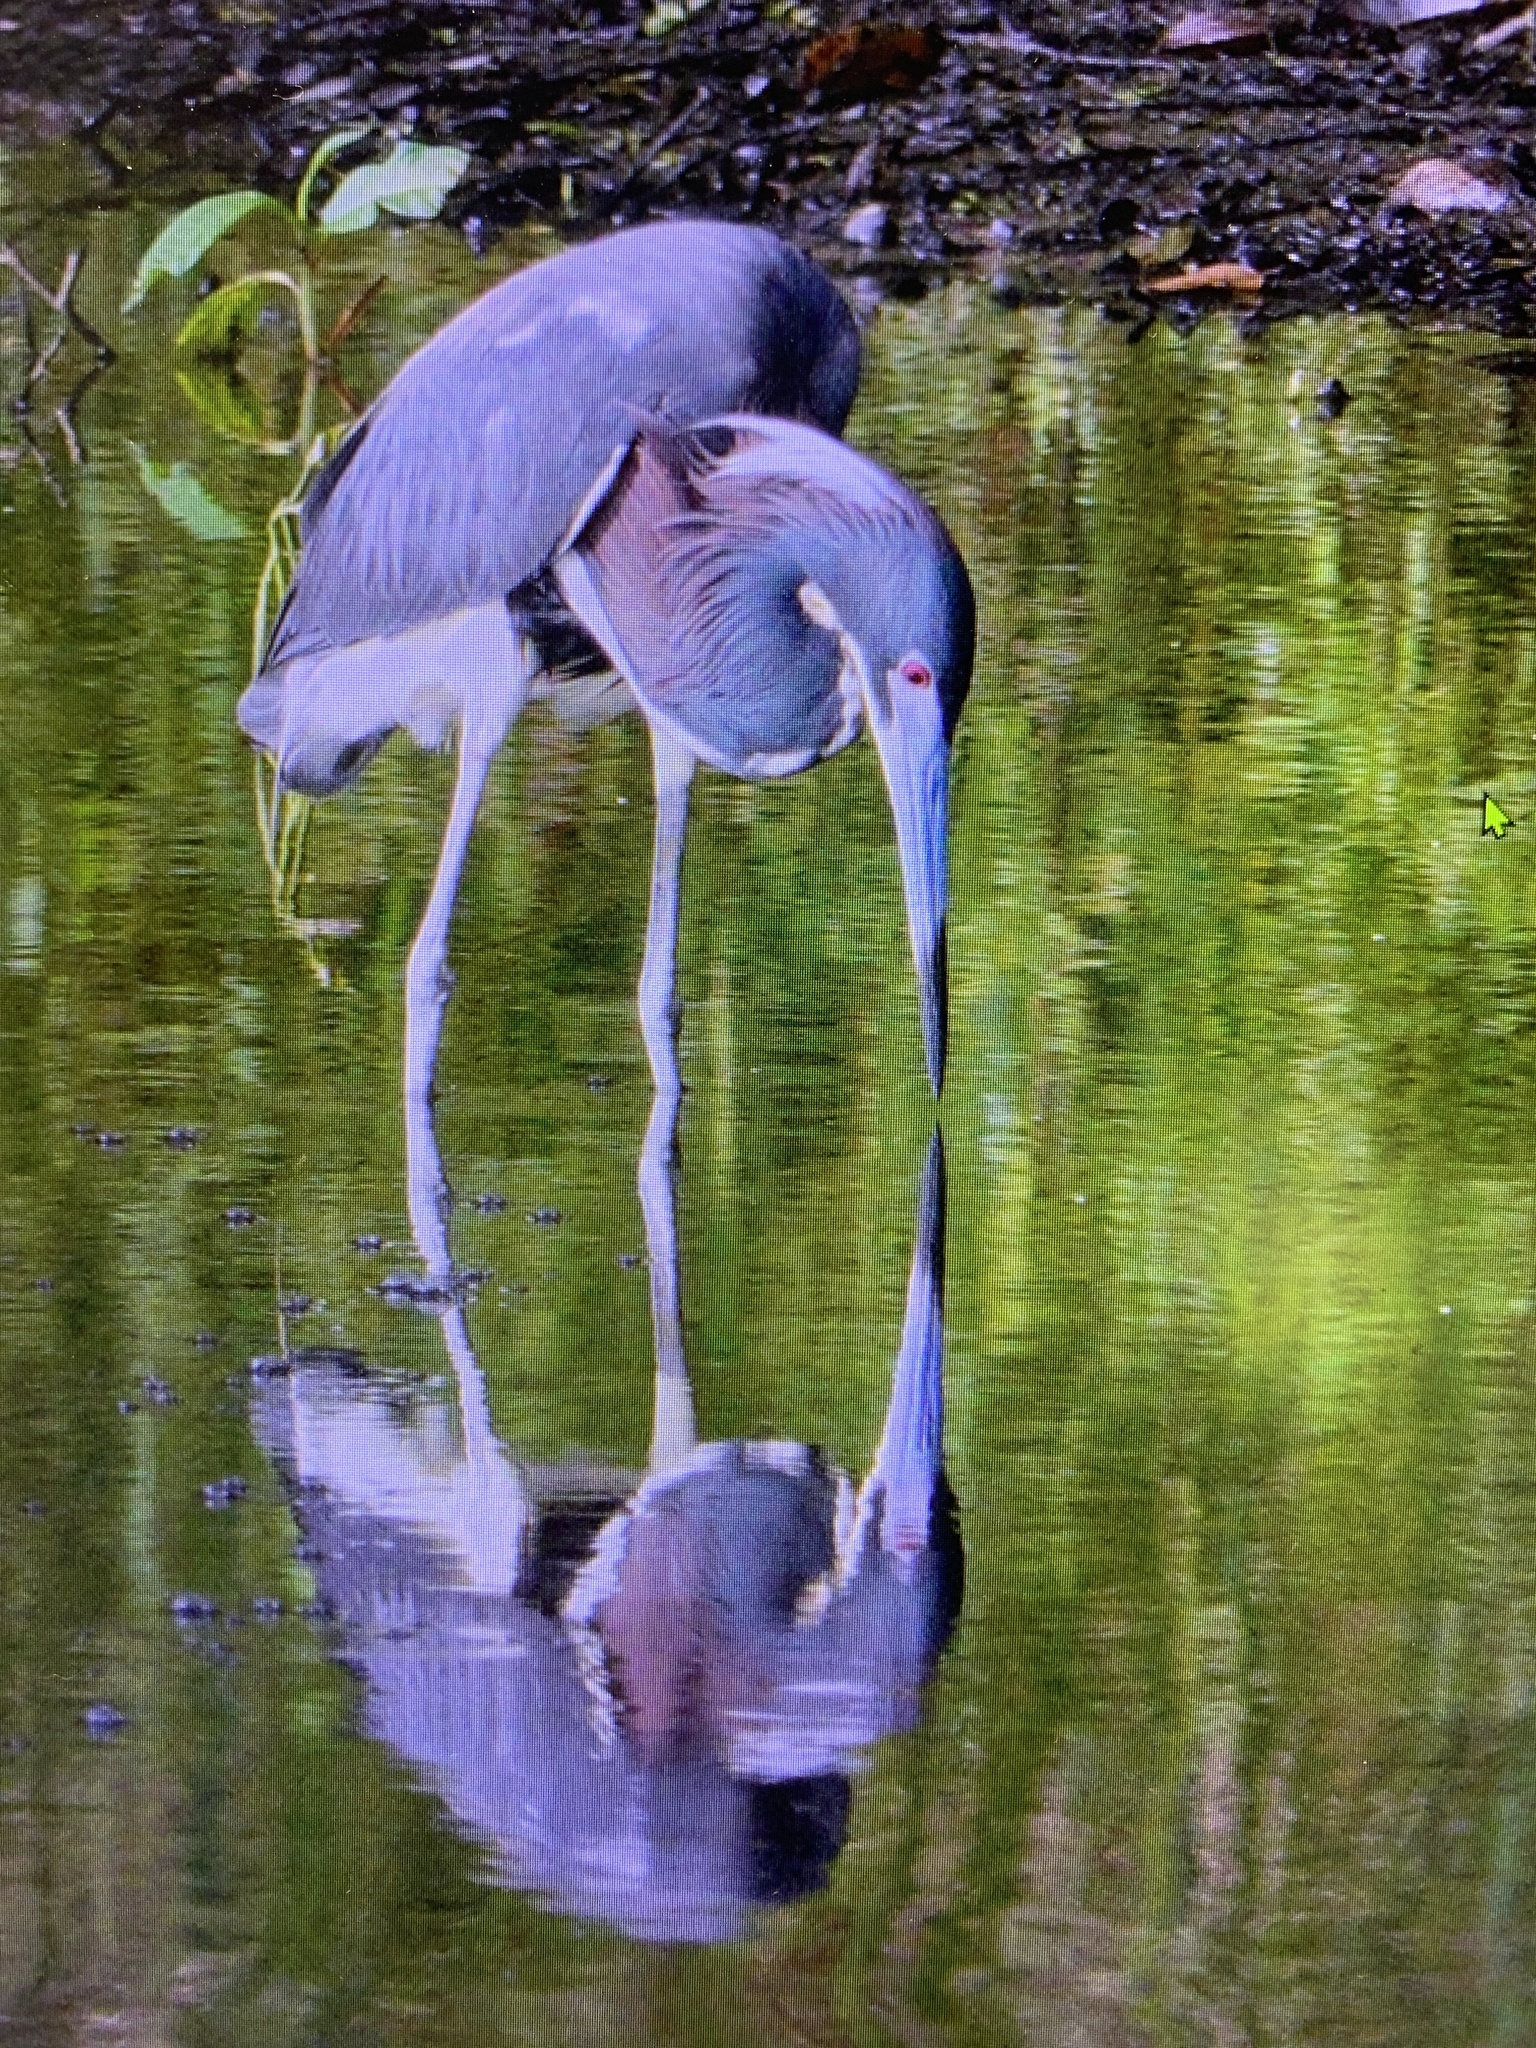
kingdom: Animalia
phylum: Chordata
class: Aves
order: Pelecaniformes
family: Ardeidae
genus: Egretta
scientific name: Egretta tricolor
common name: Tricolored heron
